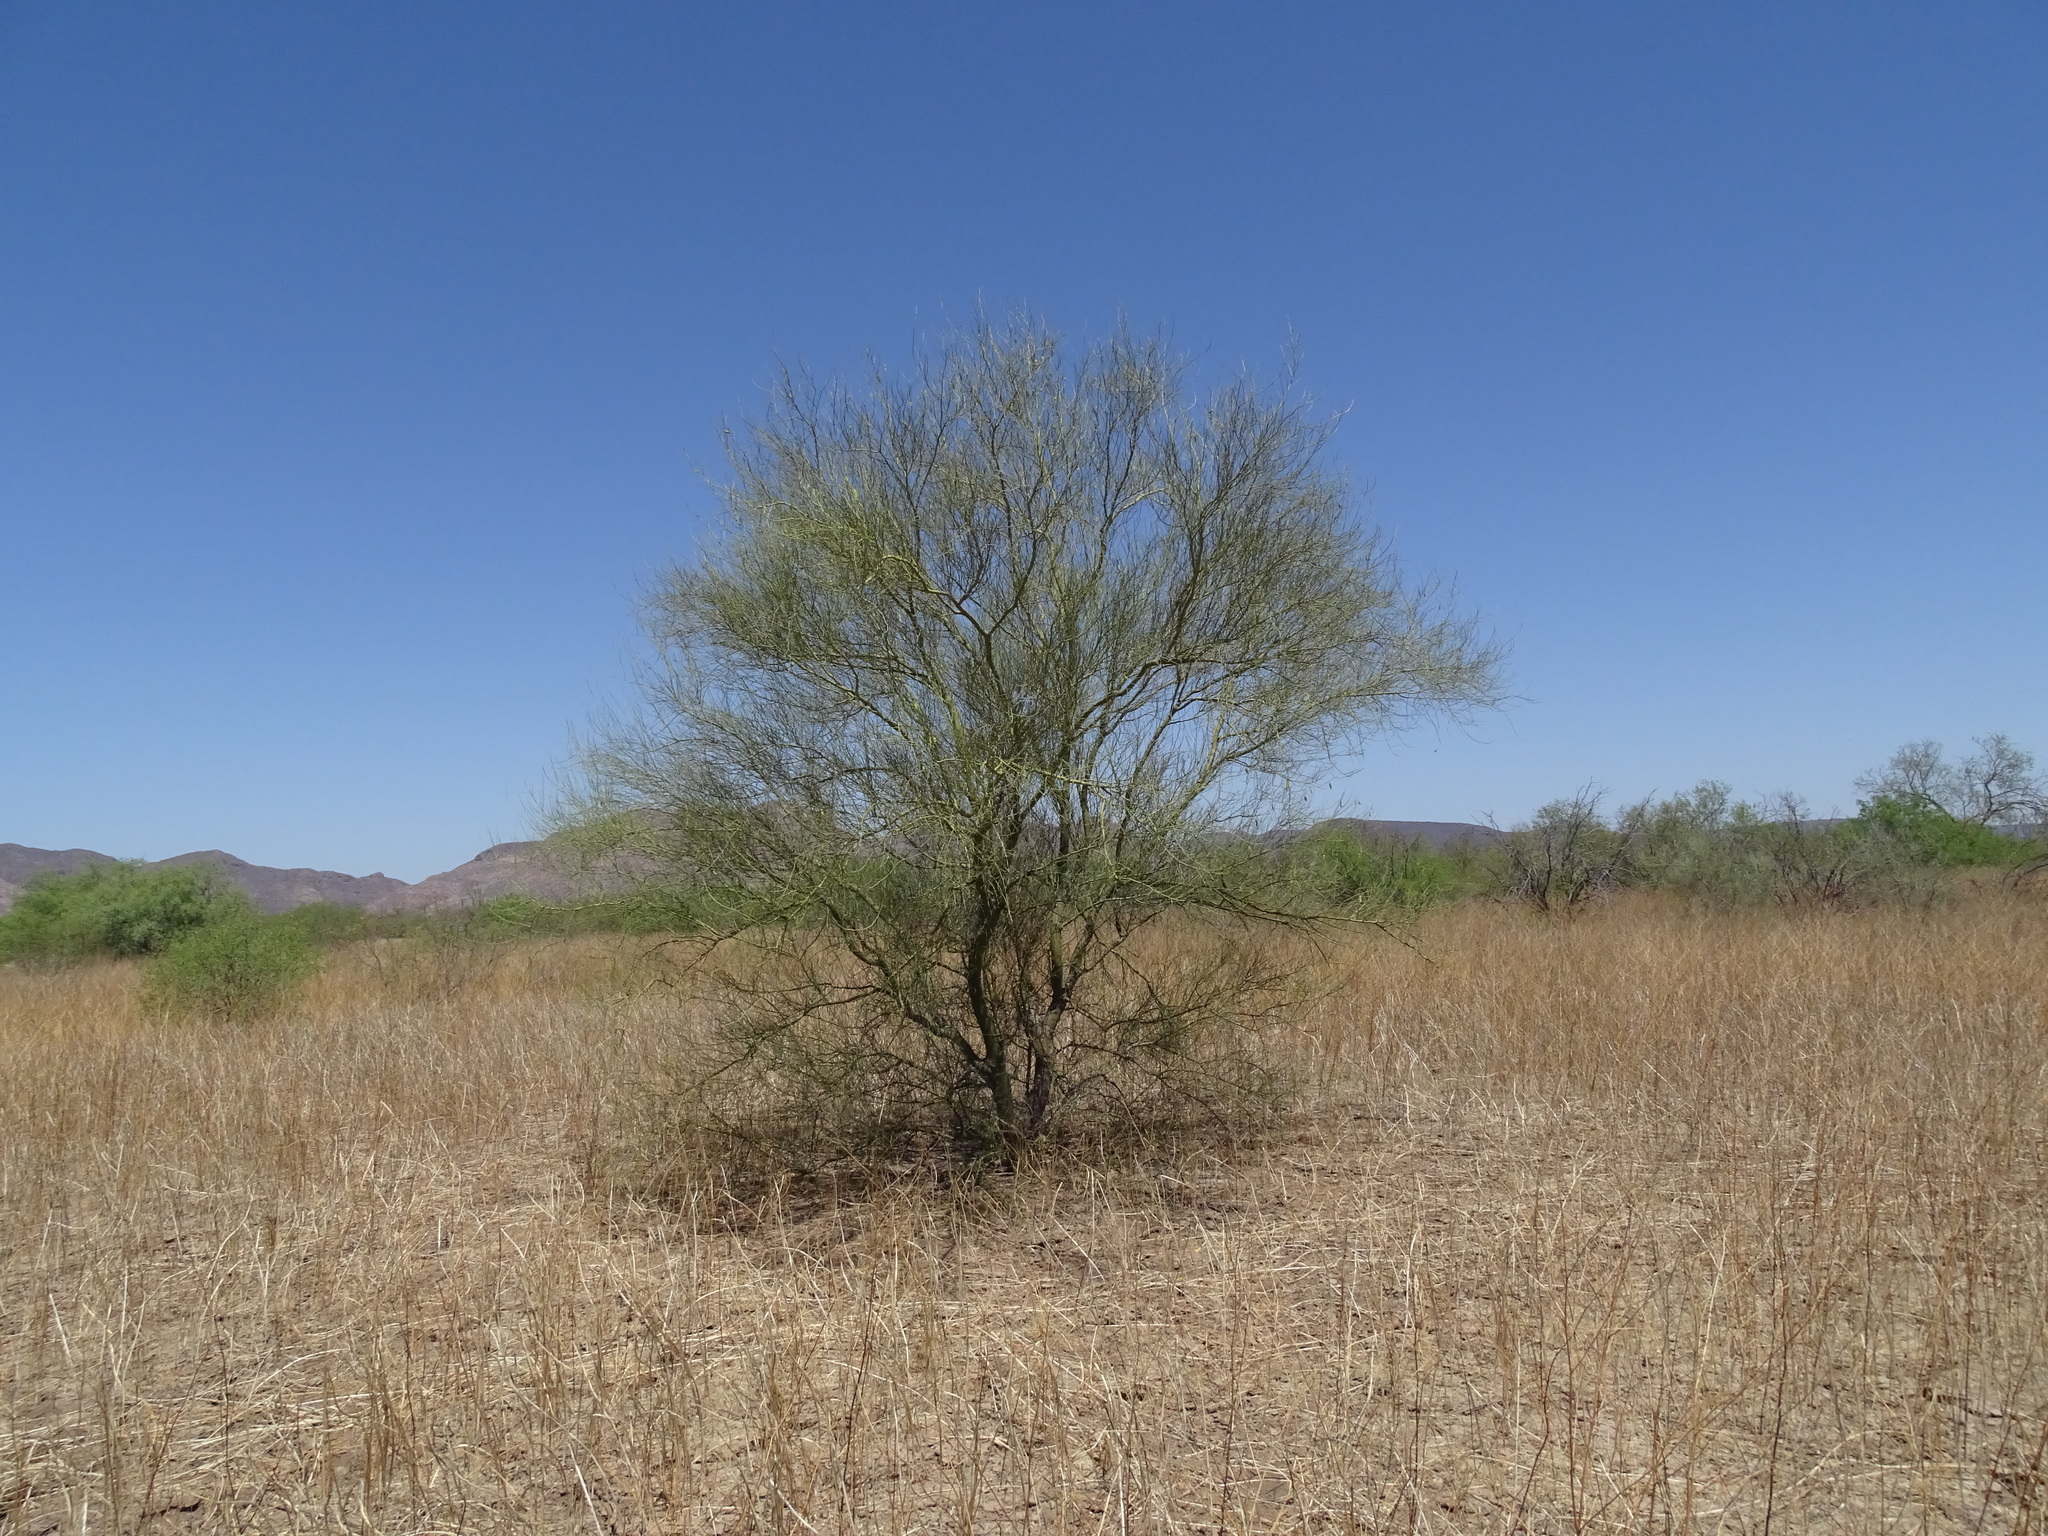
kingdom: Plantae
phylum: Tracheophyta
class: Magnoliopsida
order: Fabales
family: Fabaceae
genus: Parkinsonia
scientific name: Parkinsonia florida
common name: Blue paloverde
